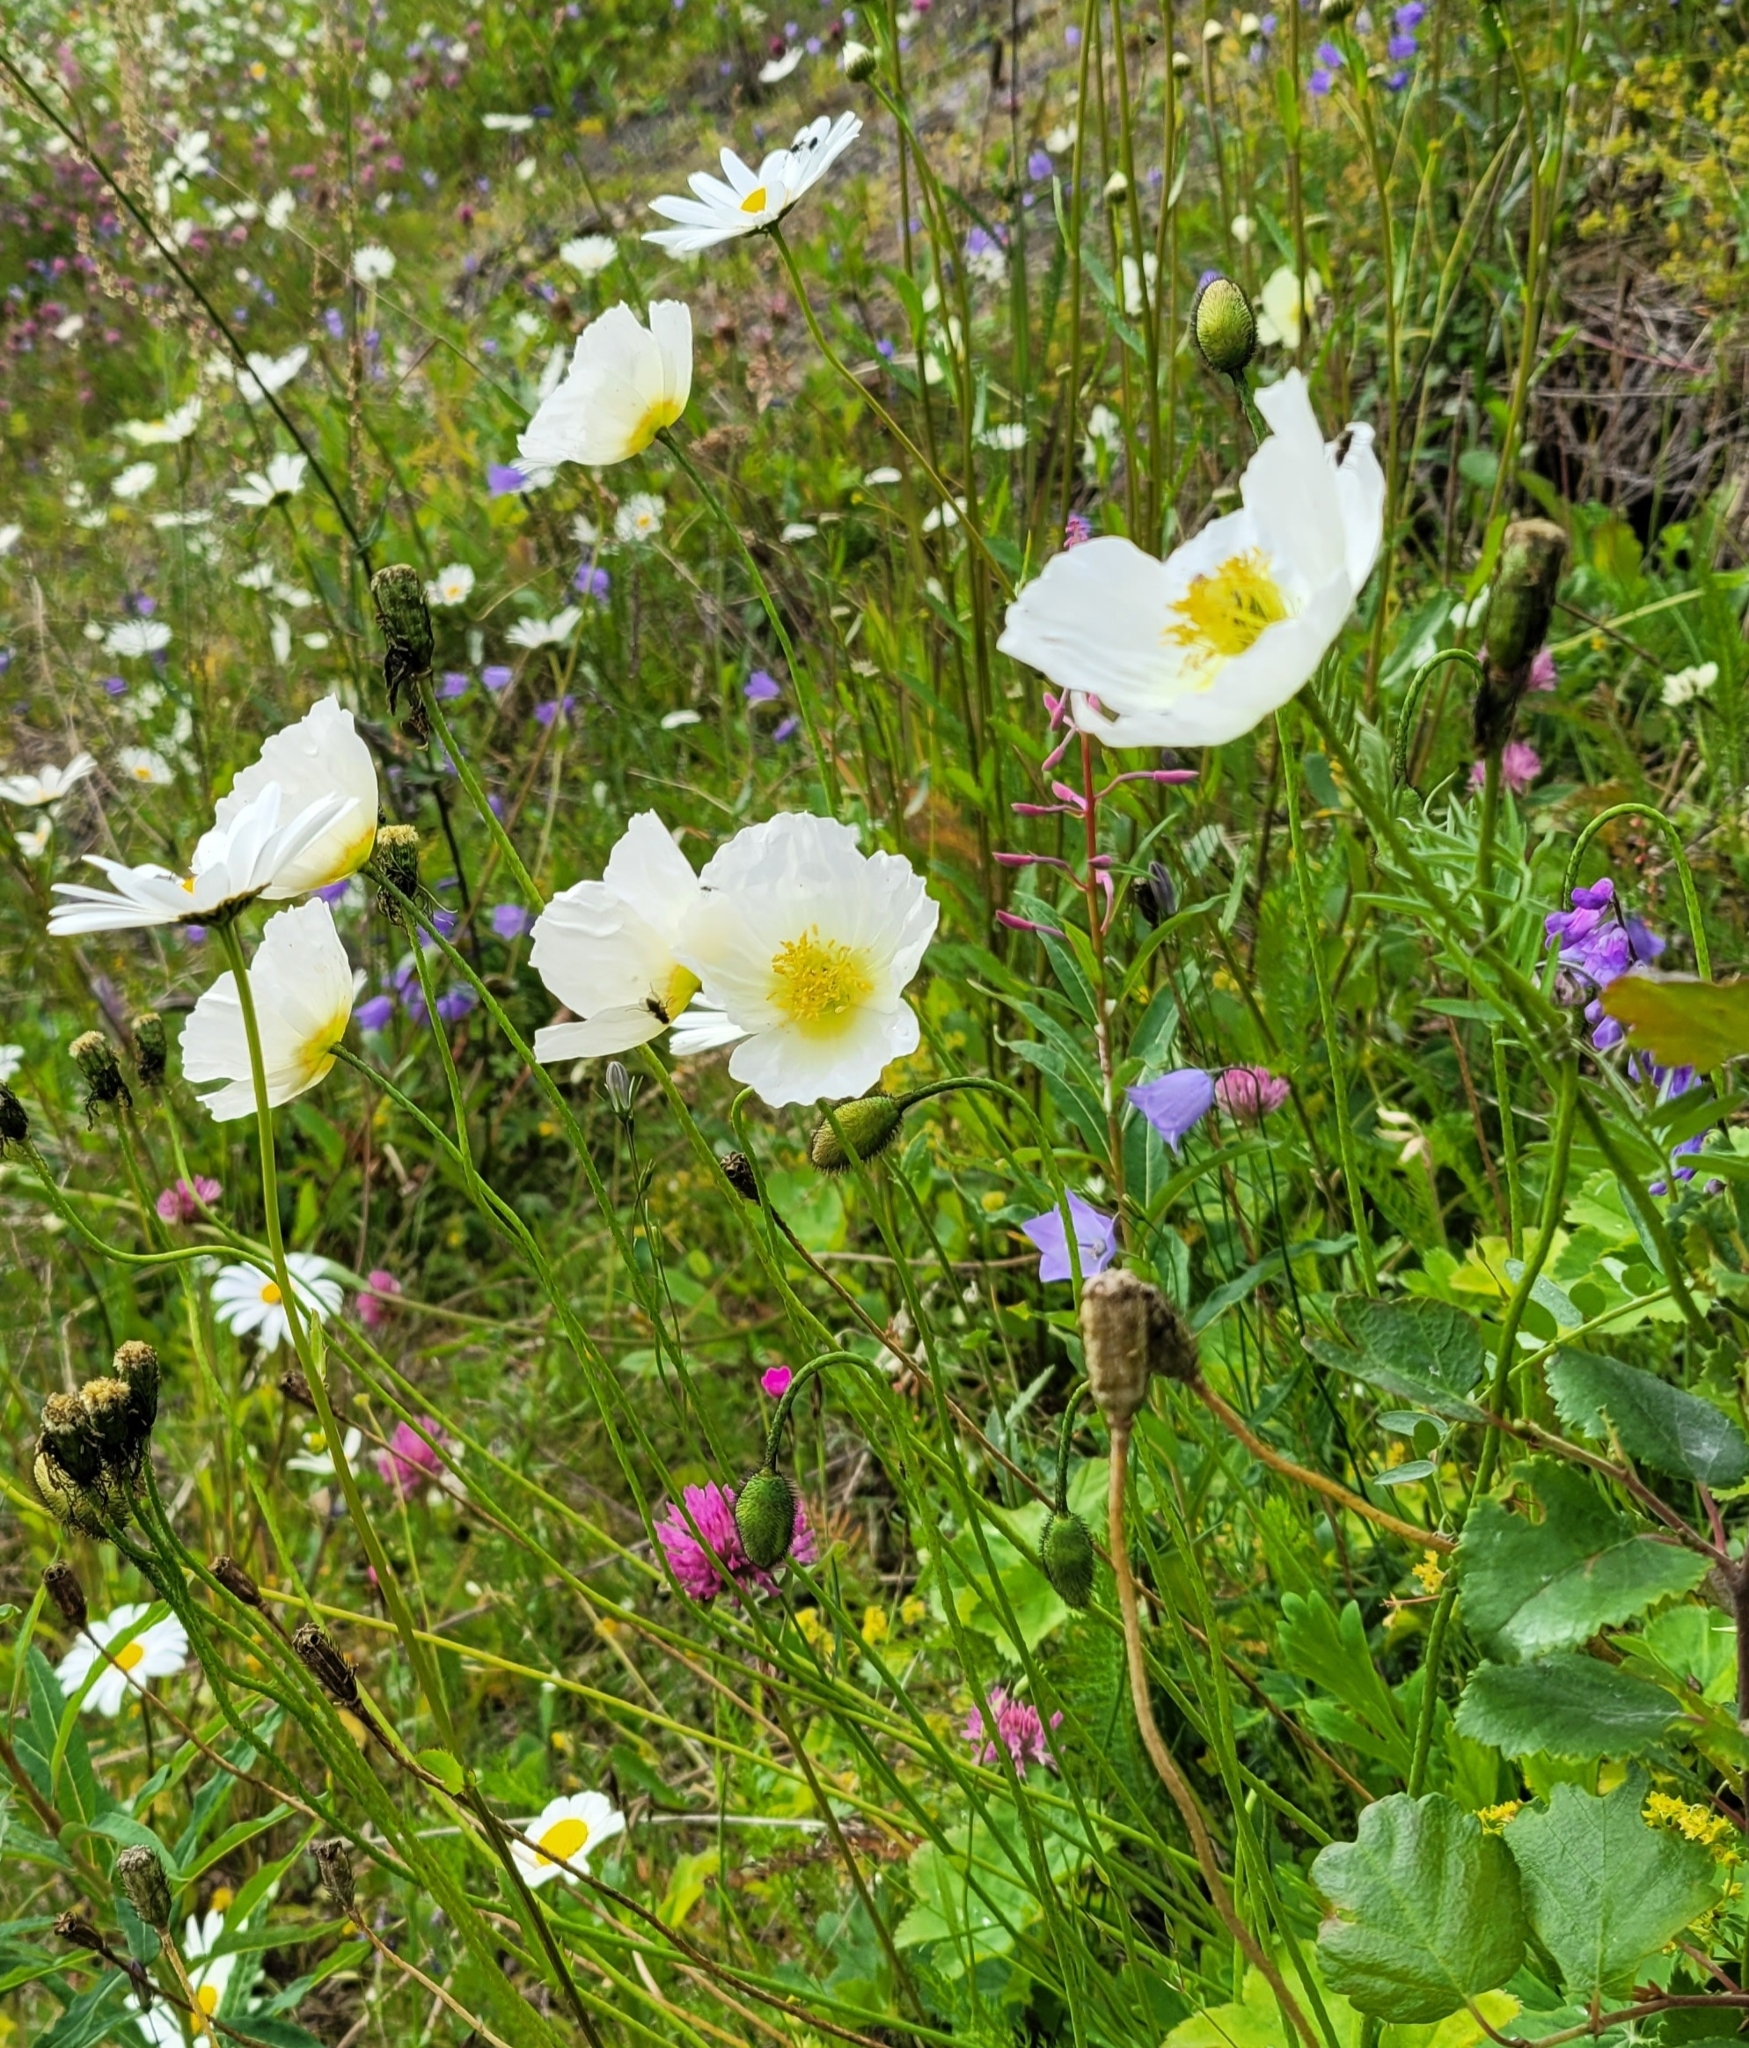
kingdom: Plantae
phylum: Tracheophyta
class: Magnoliopsida
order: Ranunculales
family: Papaveraceae
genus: Oreomecon
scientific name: Oreomecon
